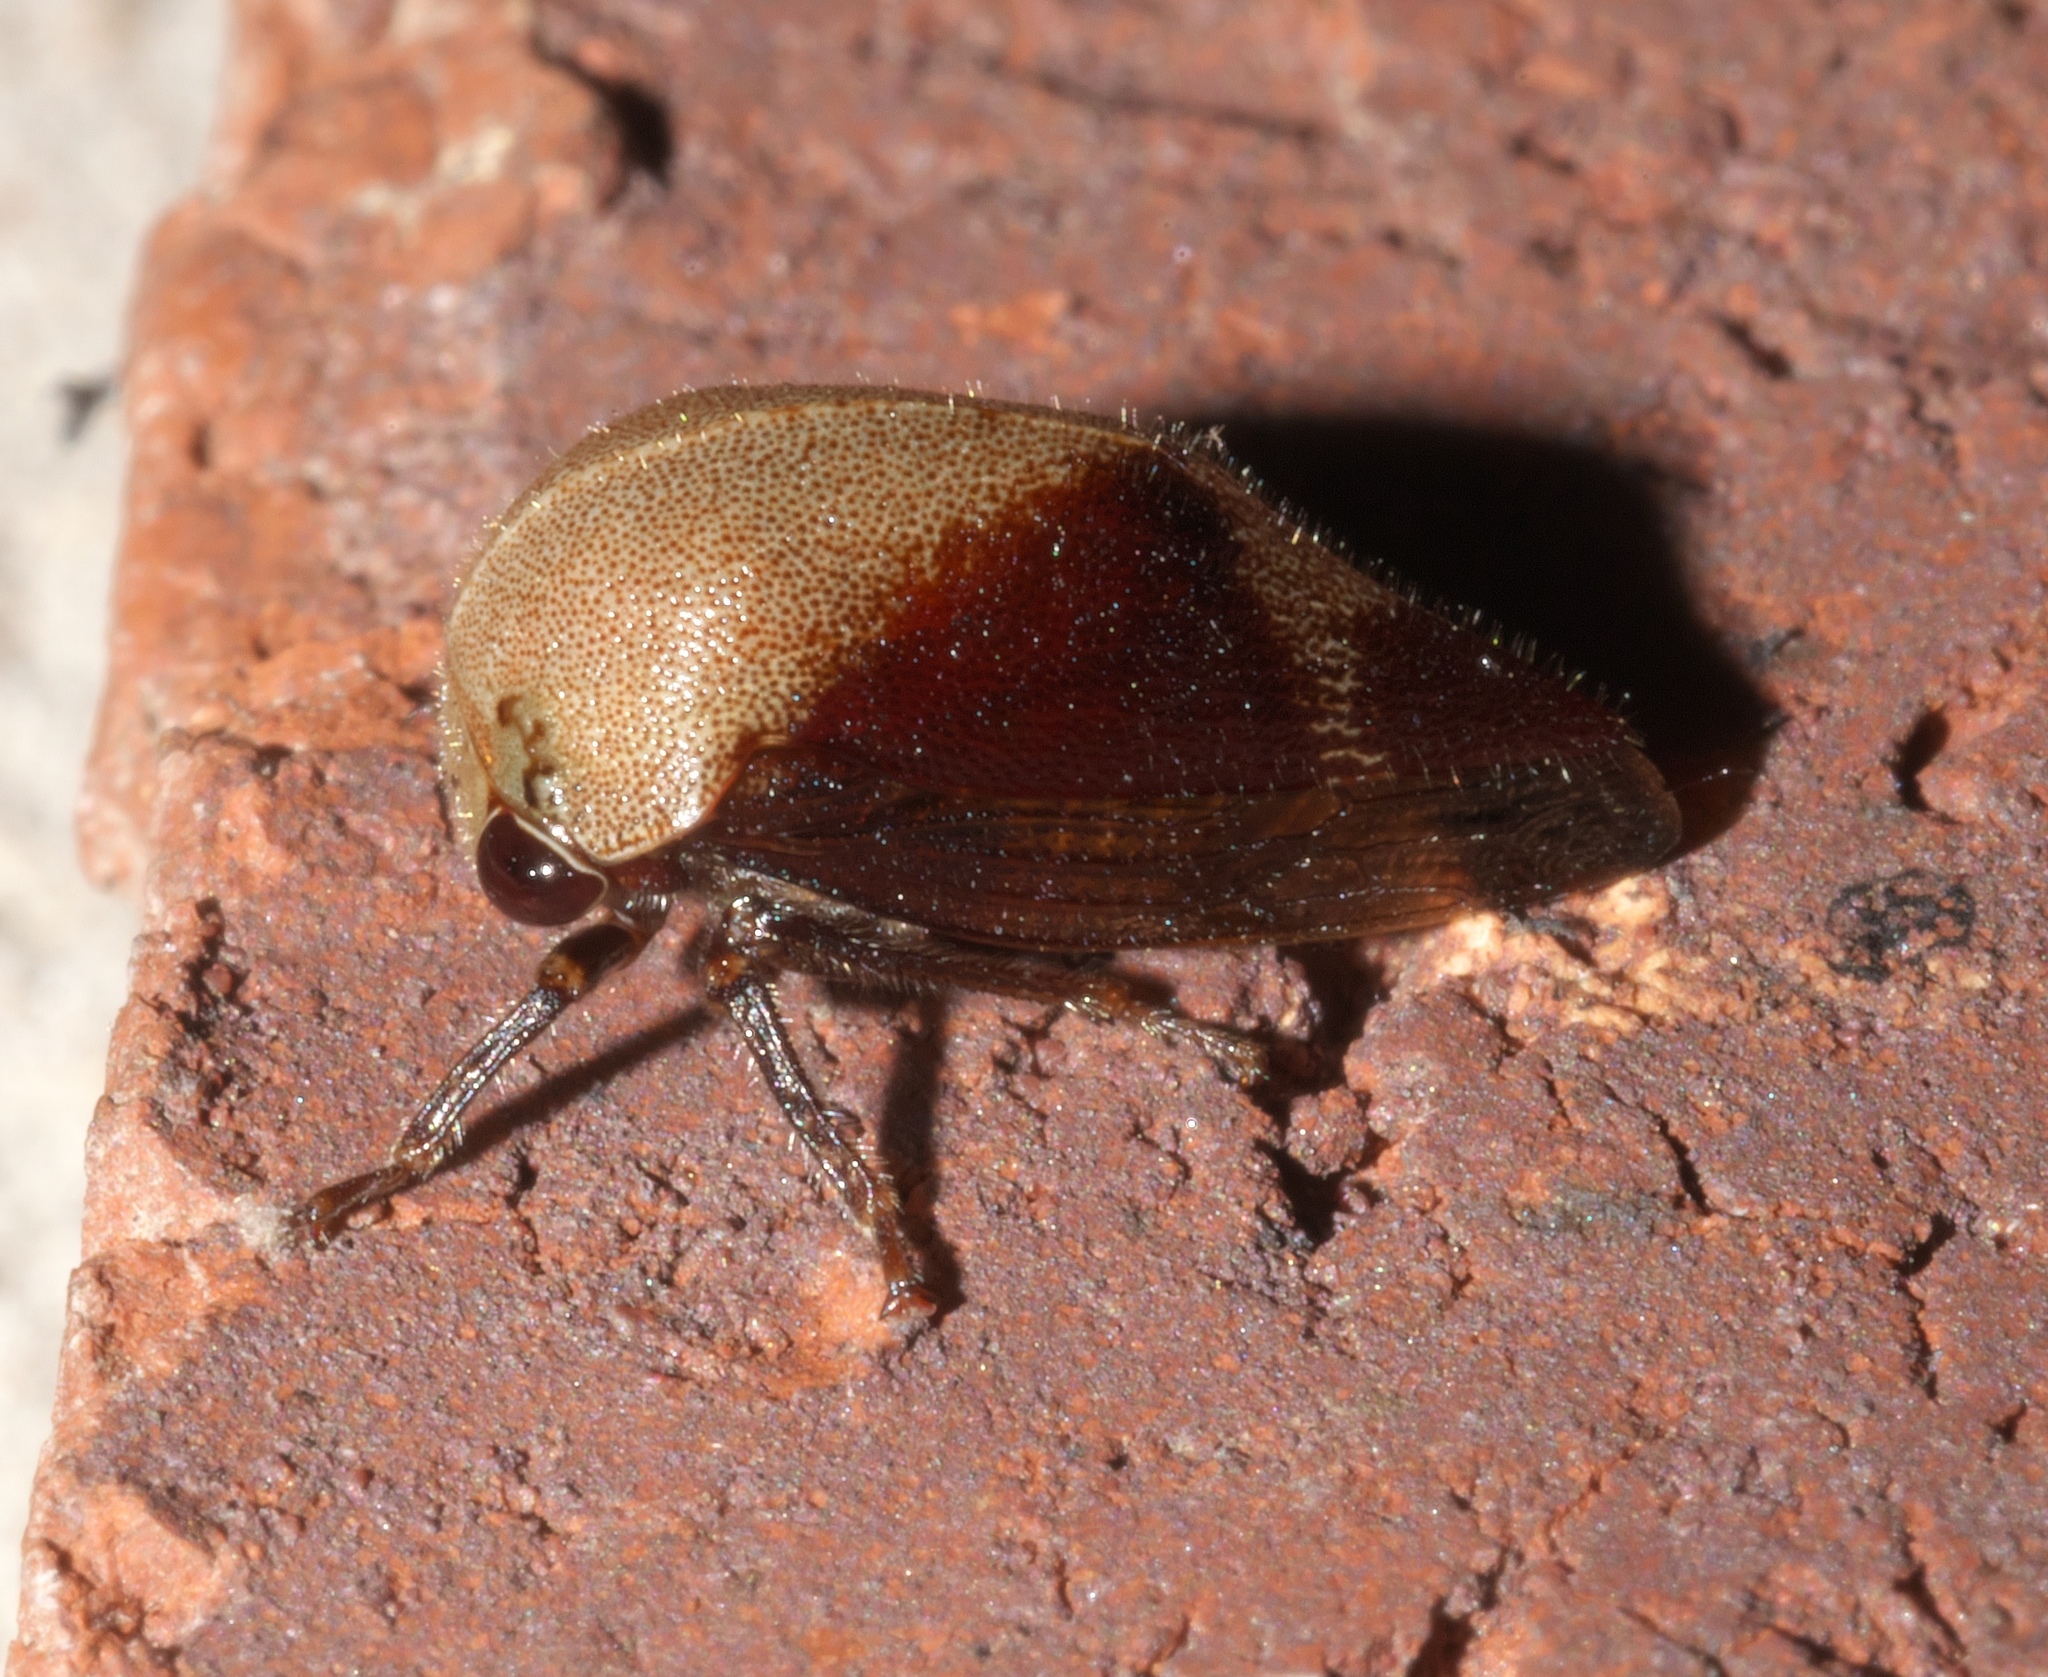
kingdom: Animalia
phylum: Arthropoda
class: Insecta
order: Hemiptera
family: Membracidae
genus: Carynota
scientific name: Carynota mera
